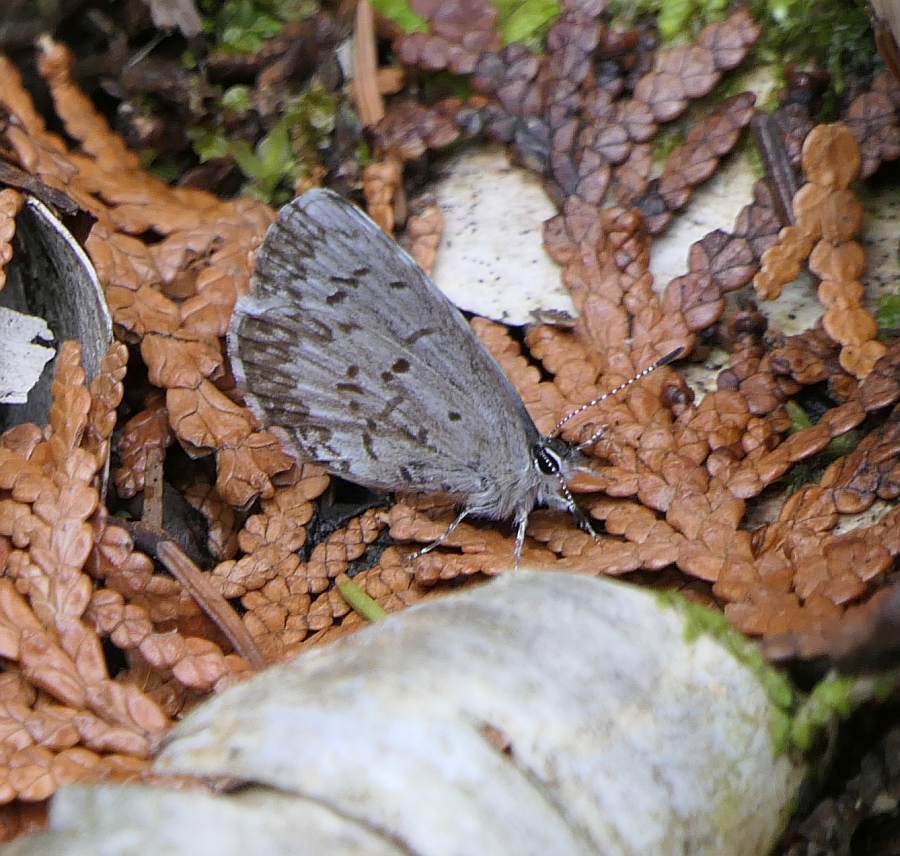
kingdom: Animalia
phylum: Arthropoda
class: Insecta
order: Lepidoptera
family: Lycaenidae
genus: Celastrina
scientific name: Celastrina lucia
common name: Lucia azure
